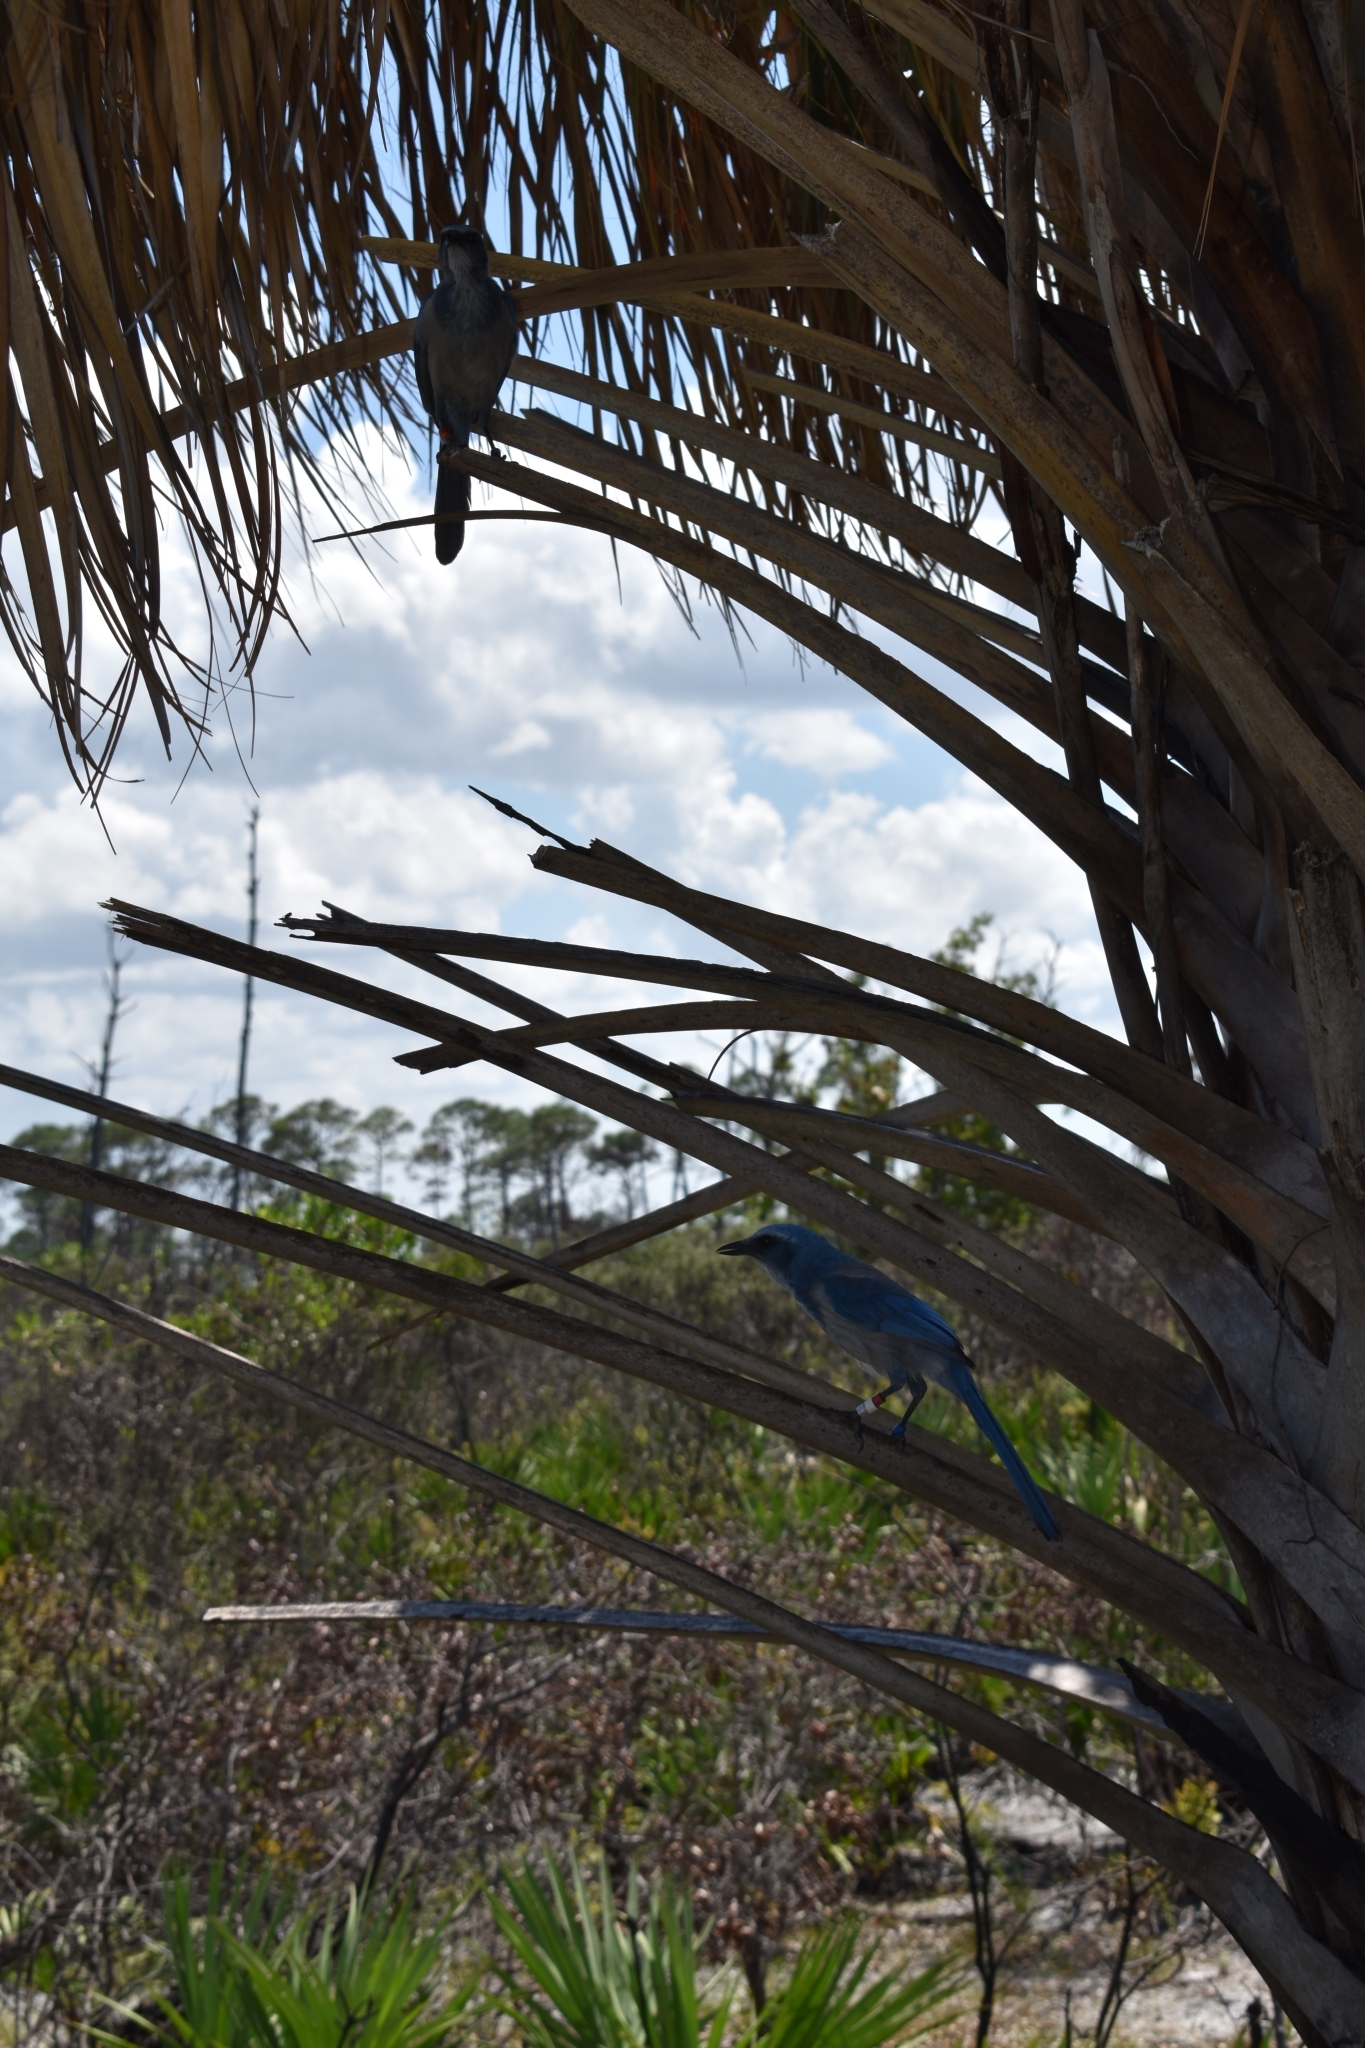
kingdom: Animalia
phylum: Chordata
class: Aves
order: Passeriformes
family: Corvidae
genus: Aphelocoma
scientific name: Aphelocoma coerulescens
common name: Florida scrub jay
